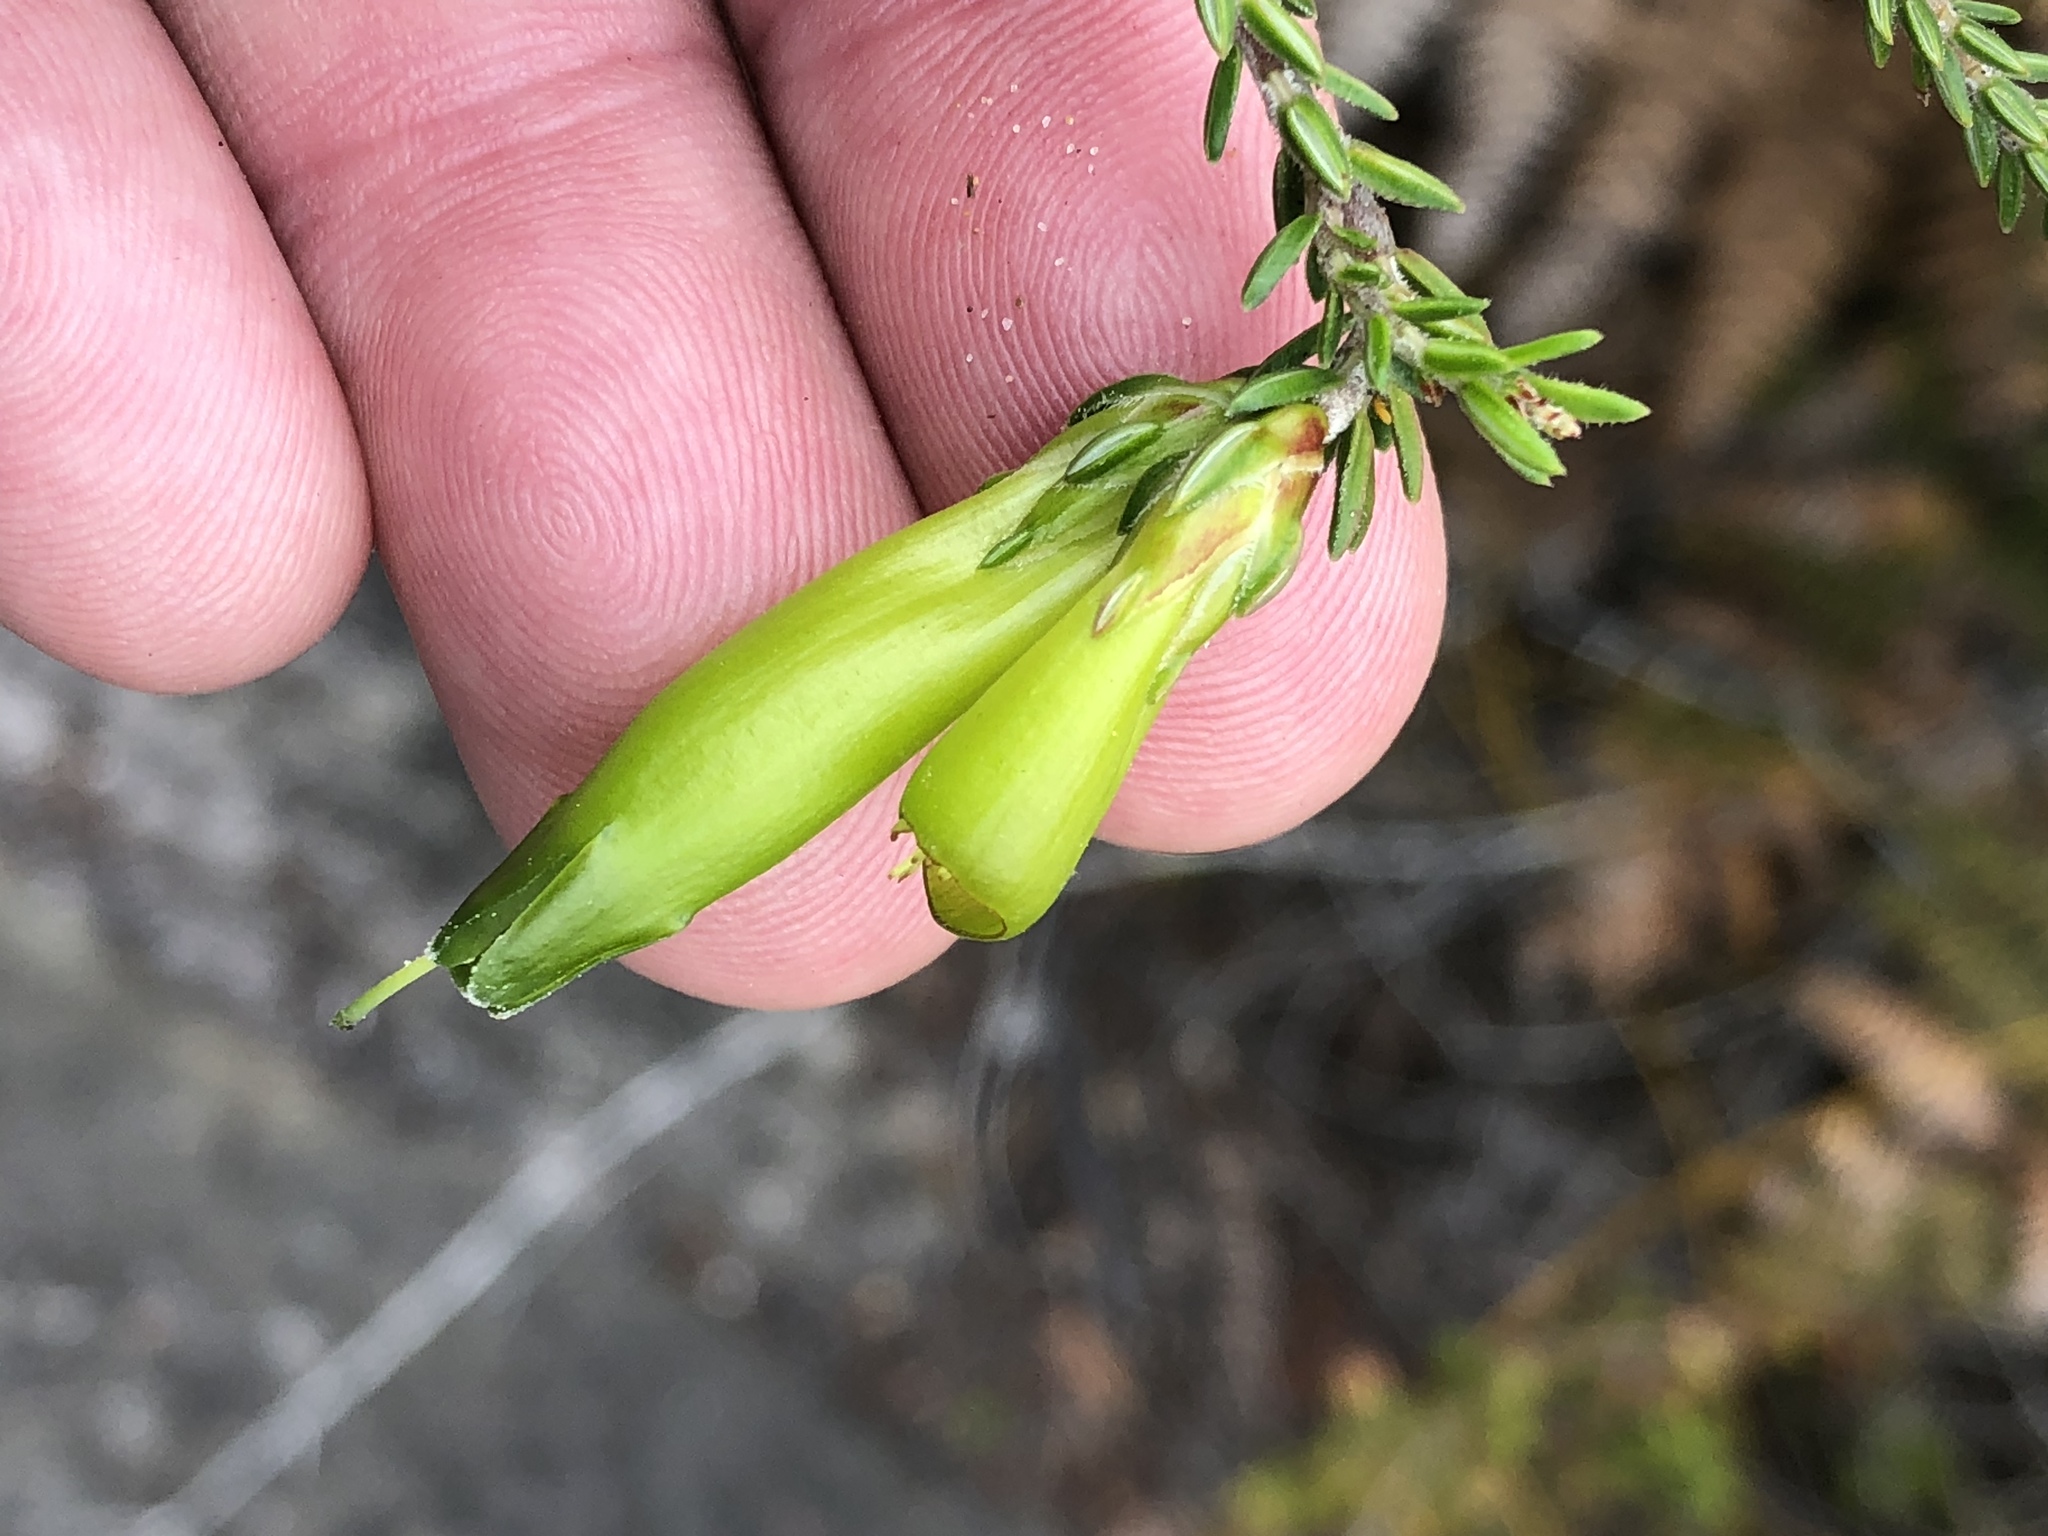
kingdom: Plantae
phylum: Tracheophyta
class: Magnoliopsida
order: Ericales
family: Ericaceae
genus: Erica
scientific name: Erica viridiflora
